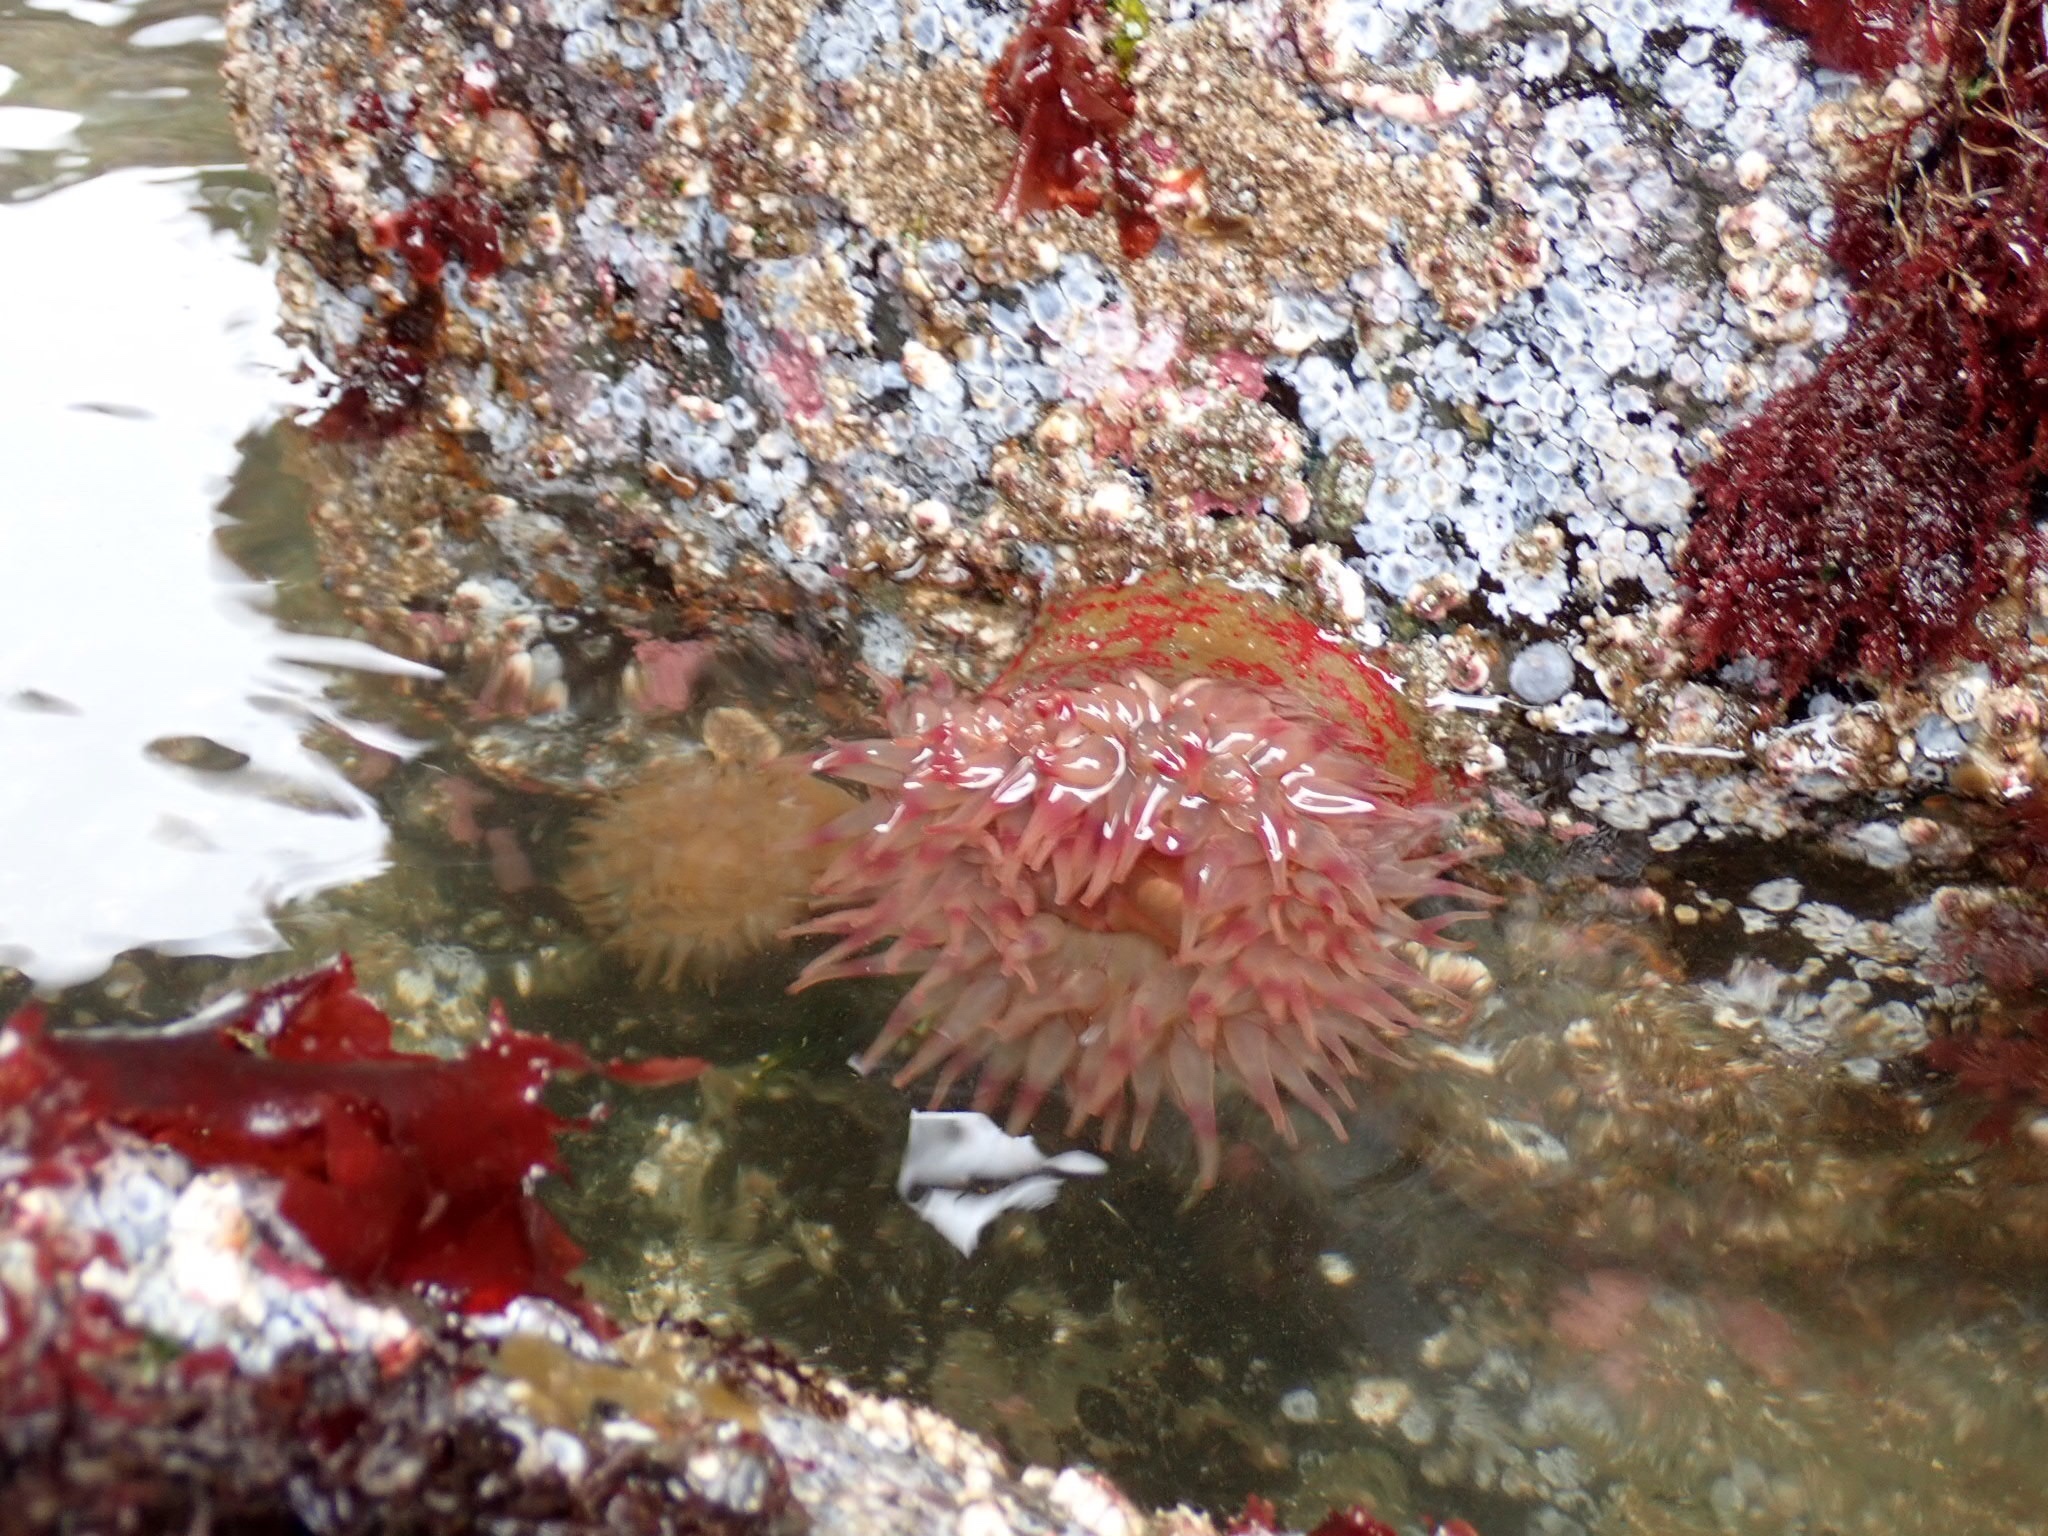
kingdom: Animalia
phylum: Cnidaria
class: Anthozoa
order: Actiniaria
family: Actiniidae
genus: Urticina
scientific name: Urticina grebelnyi
